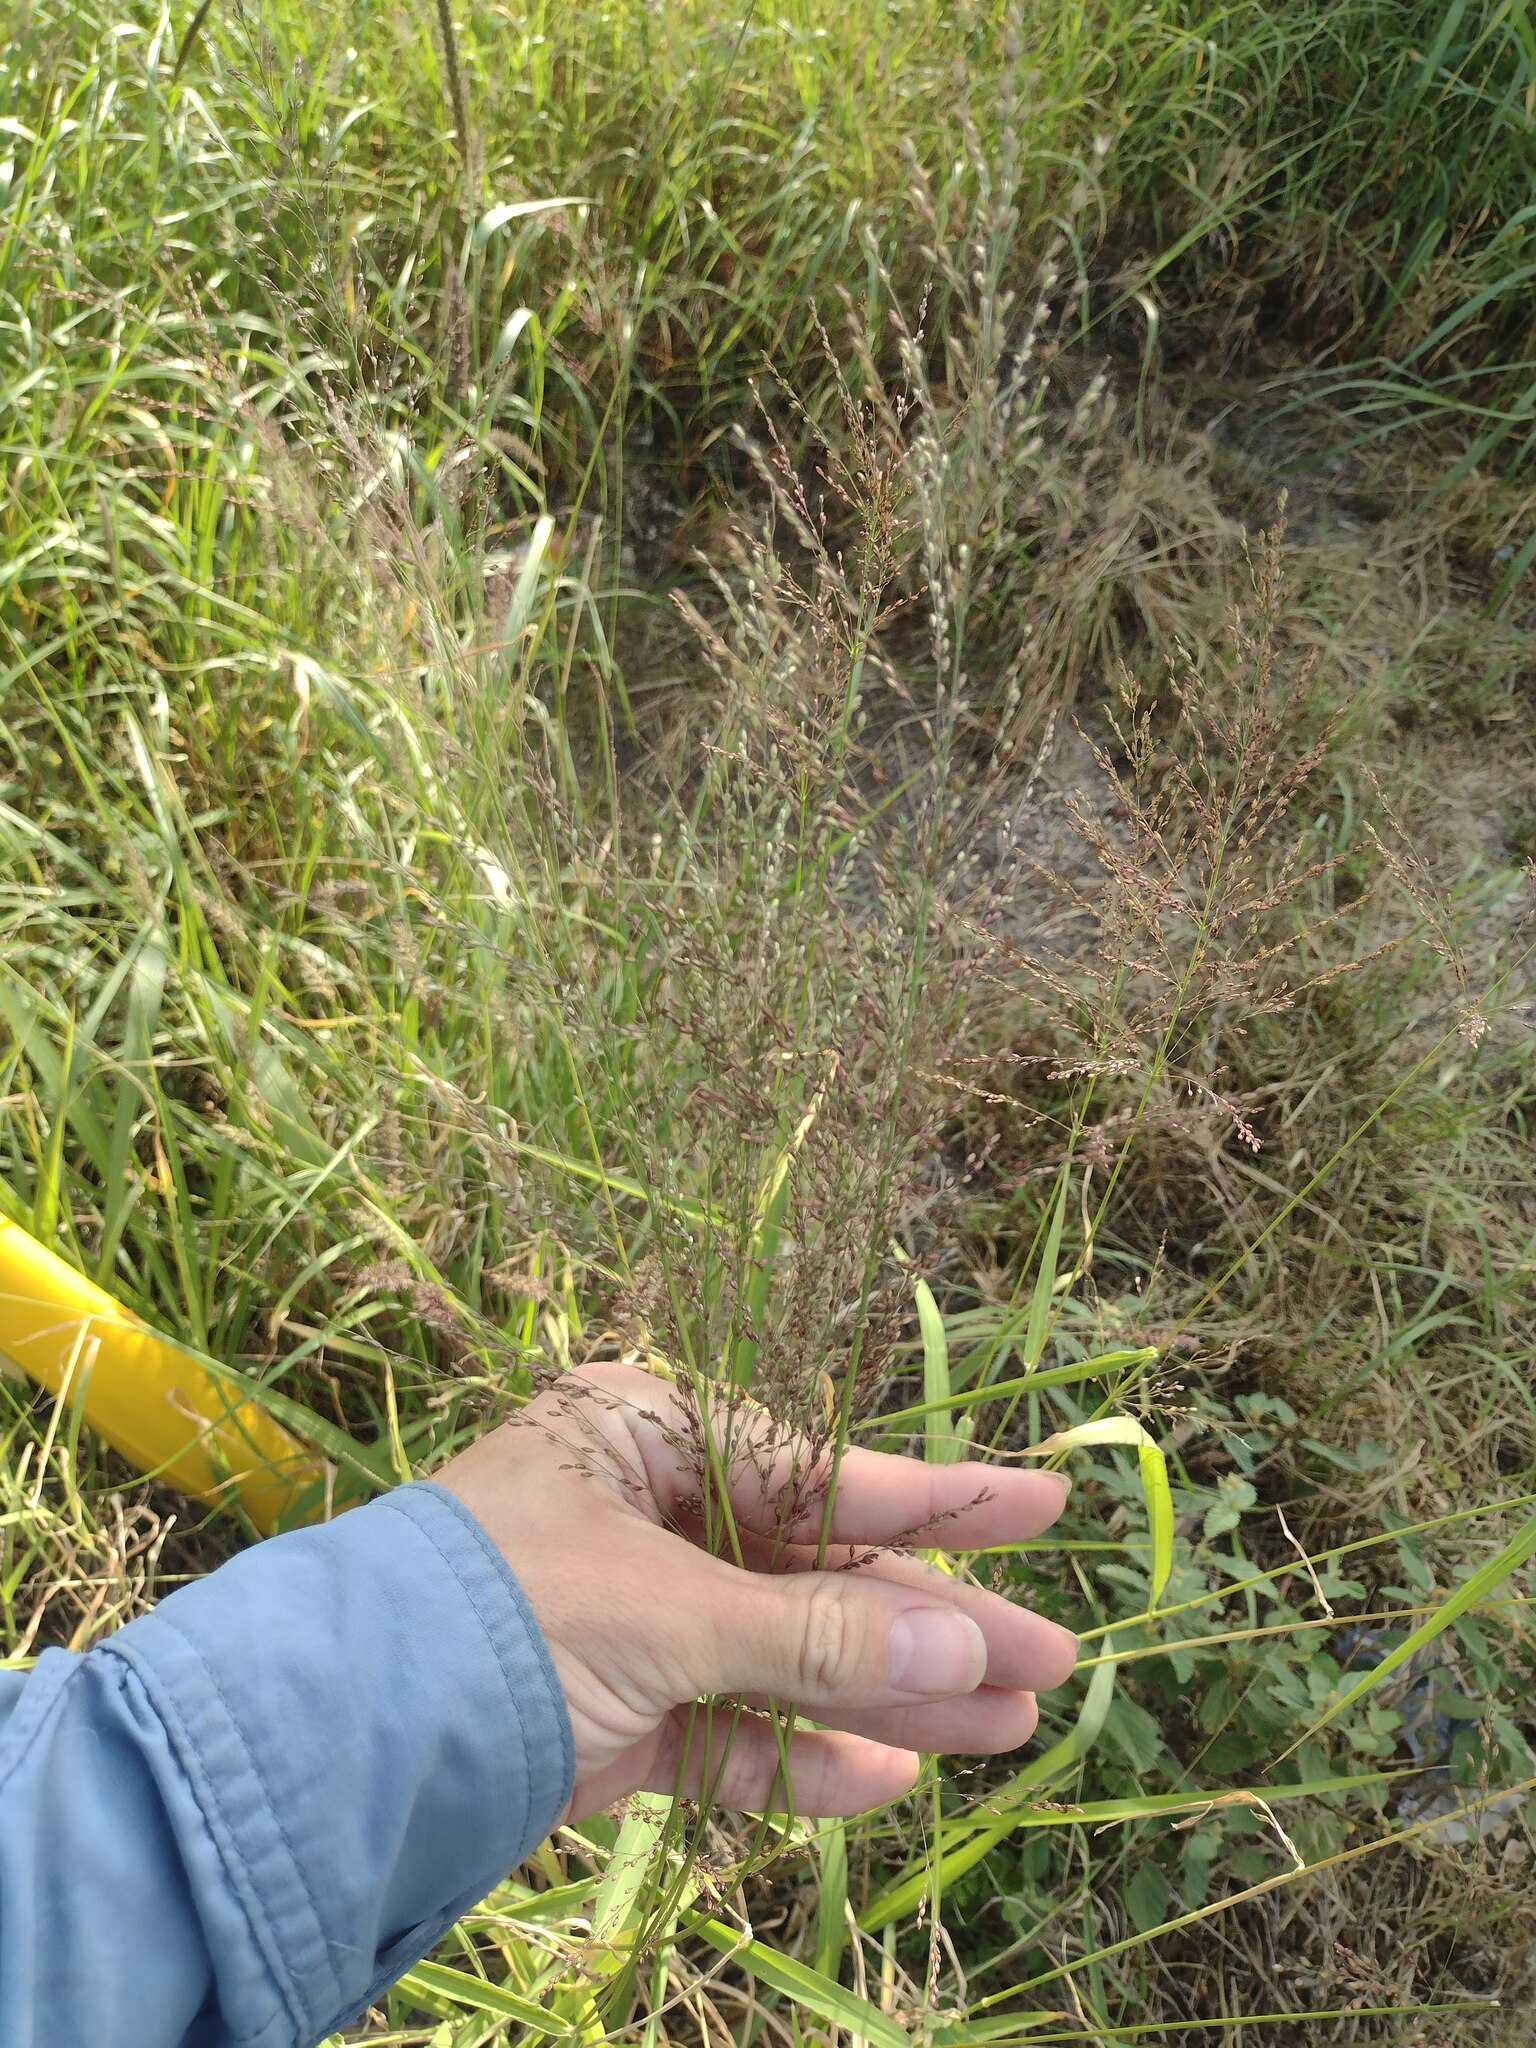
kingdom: Plantae
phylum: Tracheophyta
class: Liliopsida
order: Poales
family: Poaceae
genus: Megathyrsus
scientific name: Megathyrsus maximus
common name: Guineagrass
